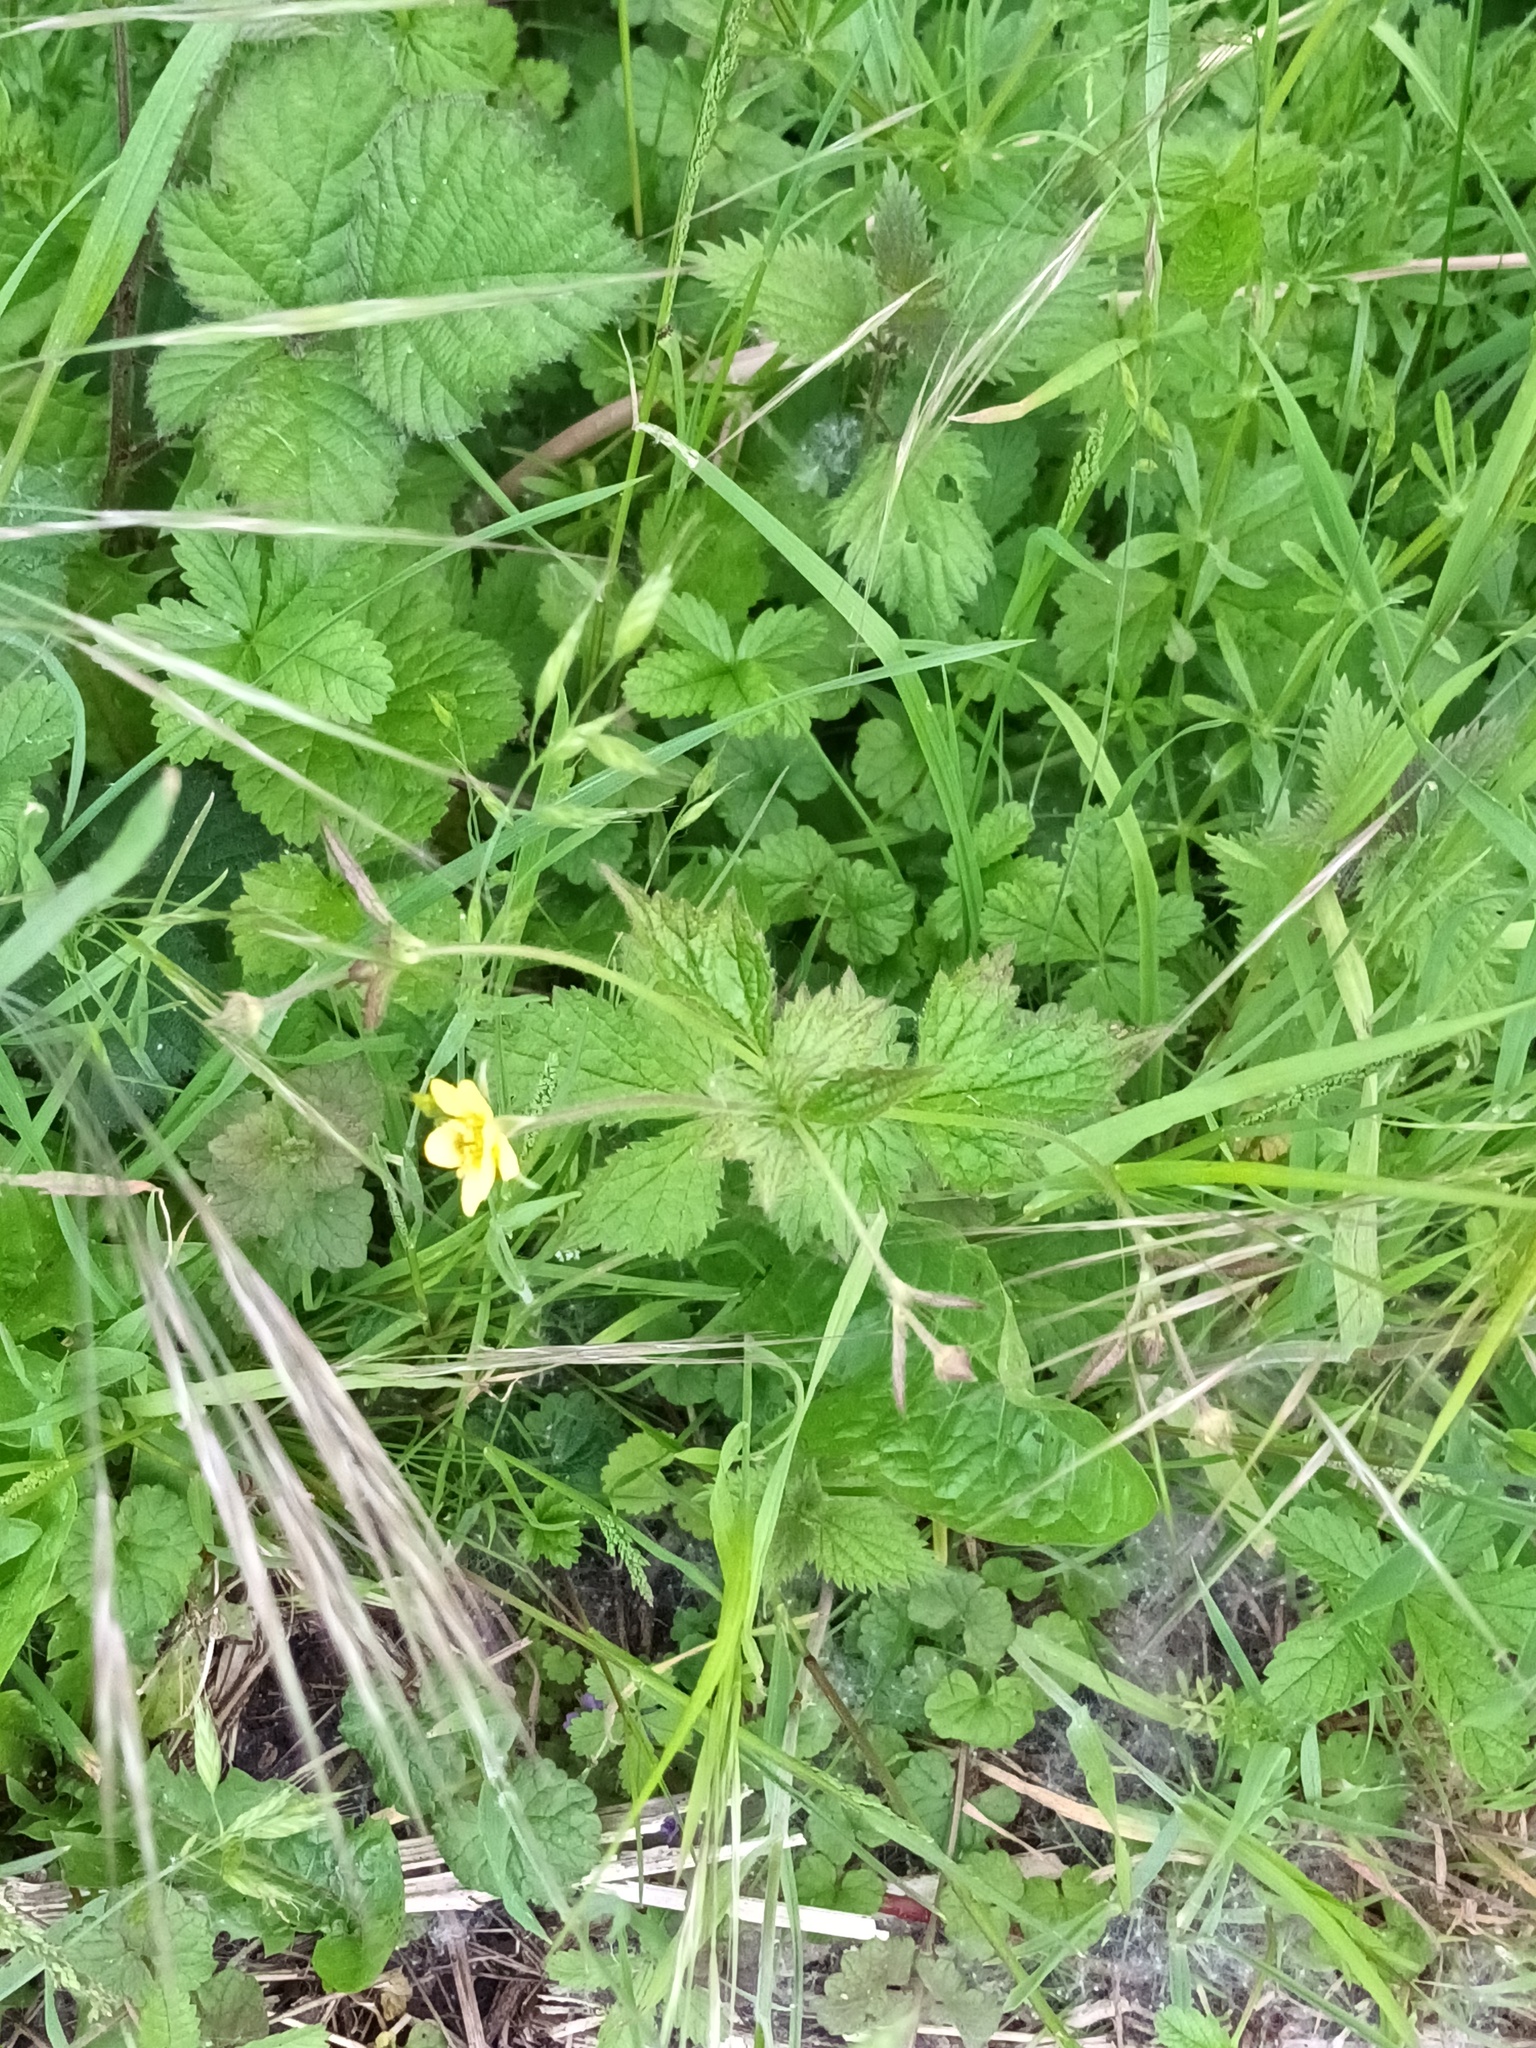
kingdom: Plantae
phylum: Tracheophyta
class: Magnoliopsida
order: Rosales
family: Rosaceae
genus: Geum
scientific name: Geum urbanum
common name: Wood avens
